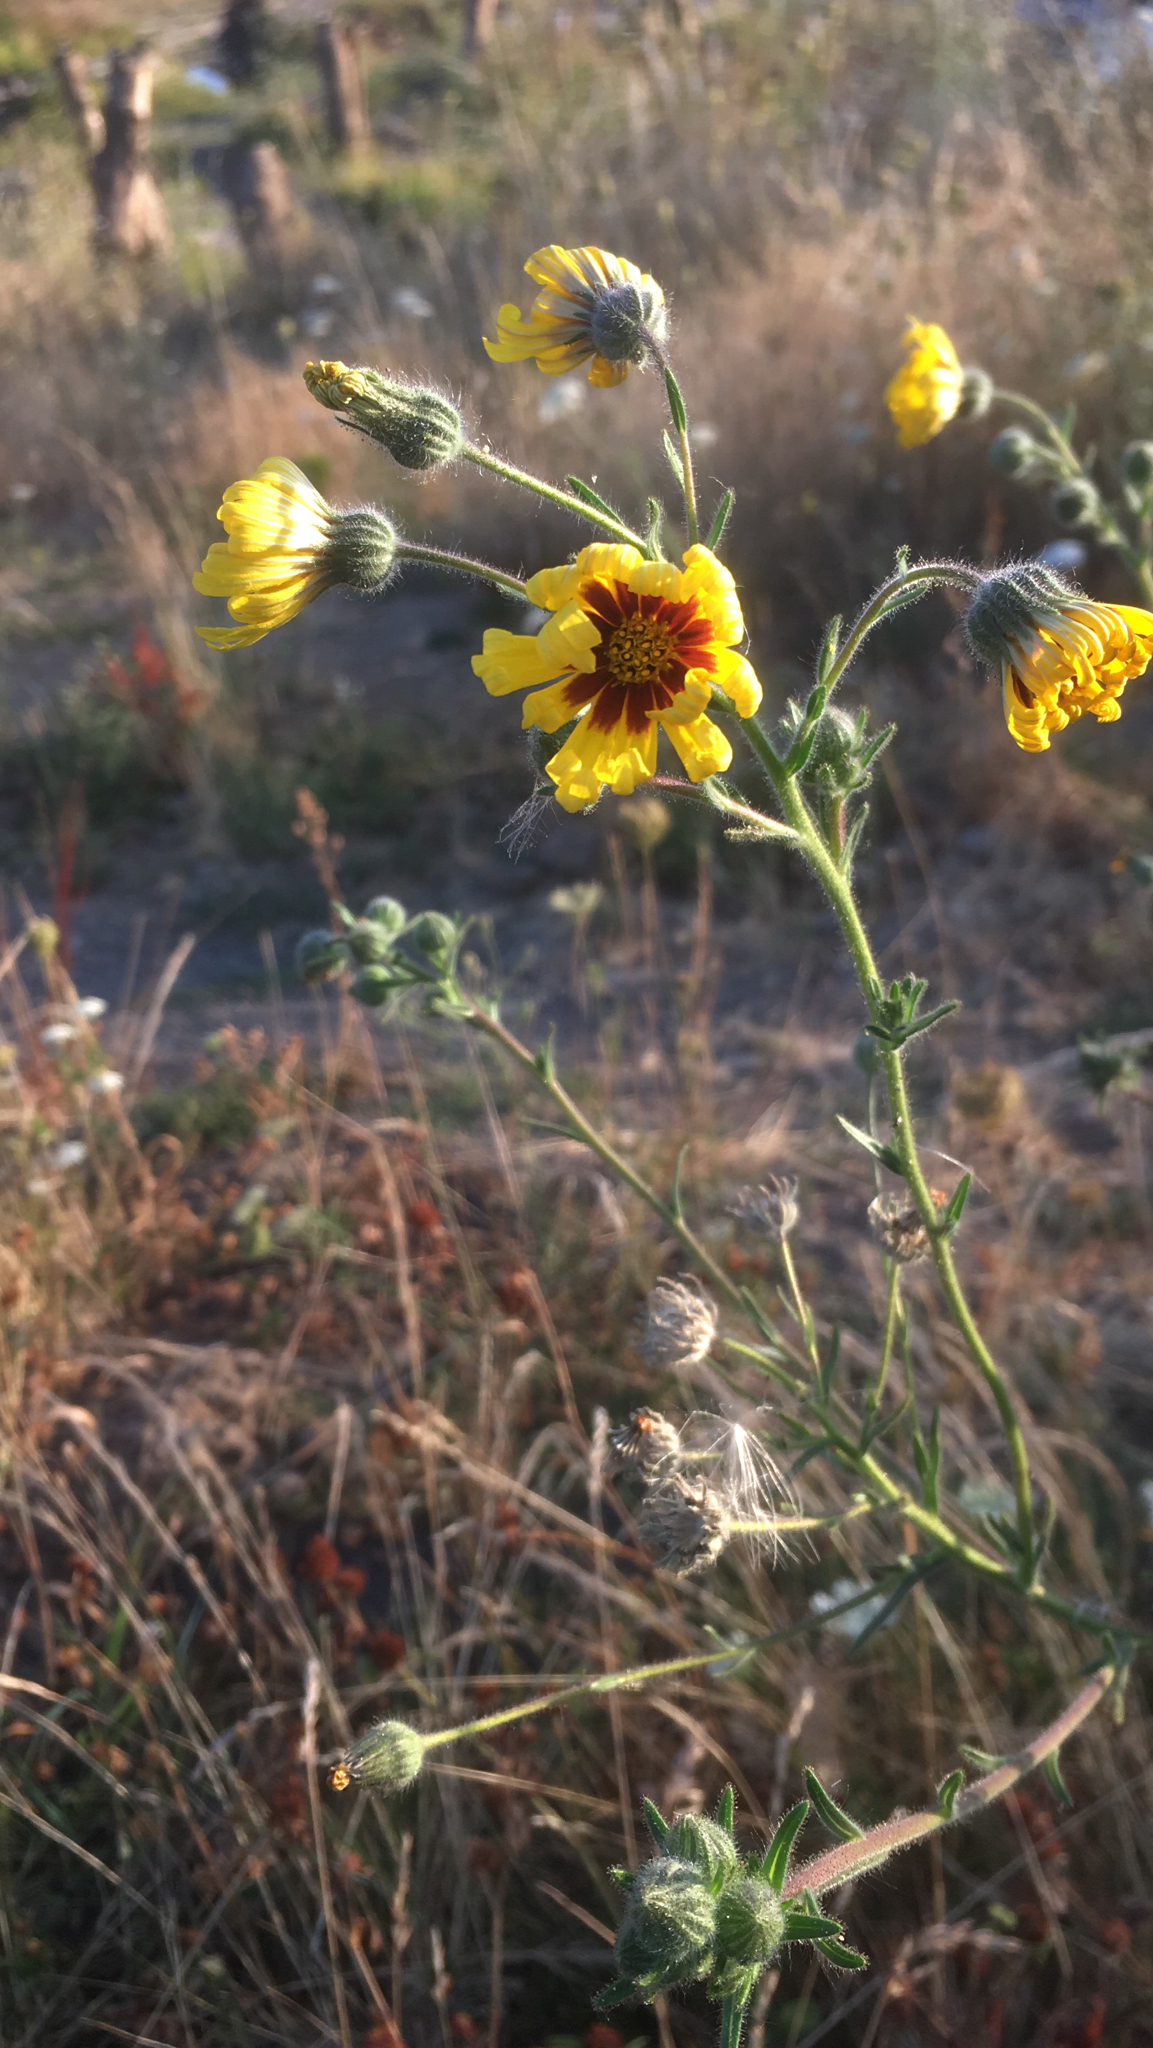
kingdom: Plantae
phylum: Tracheophyta
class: Magnoliopsida
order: Asterales
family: Asteraceae
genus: Madia
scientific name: Madia elegans
